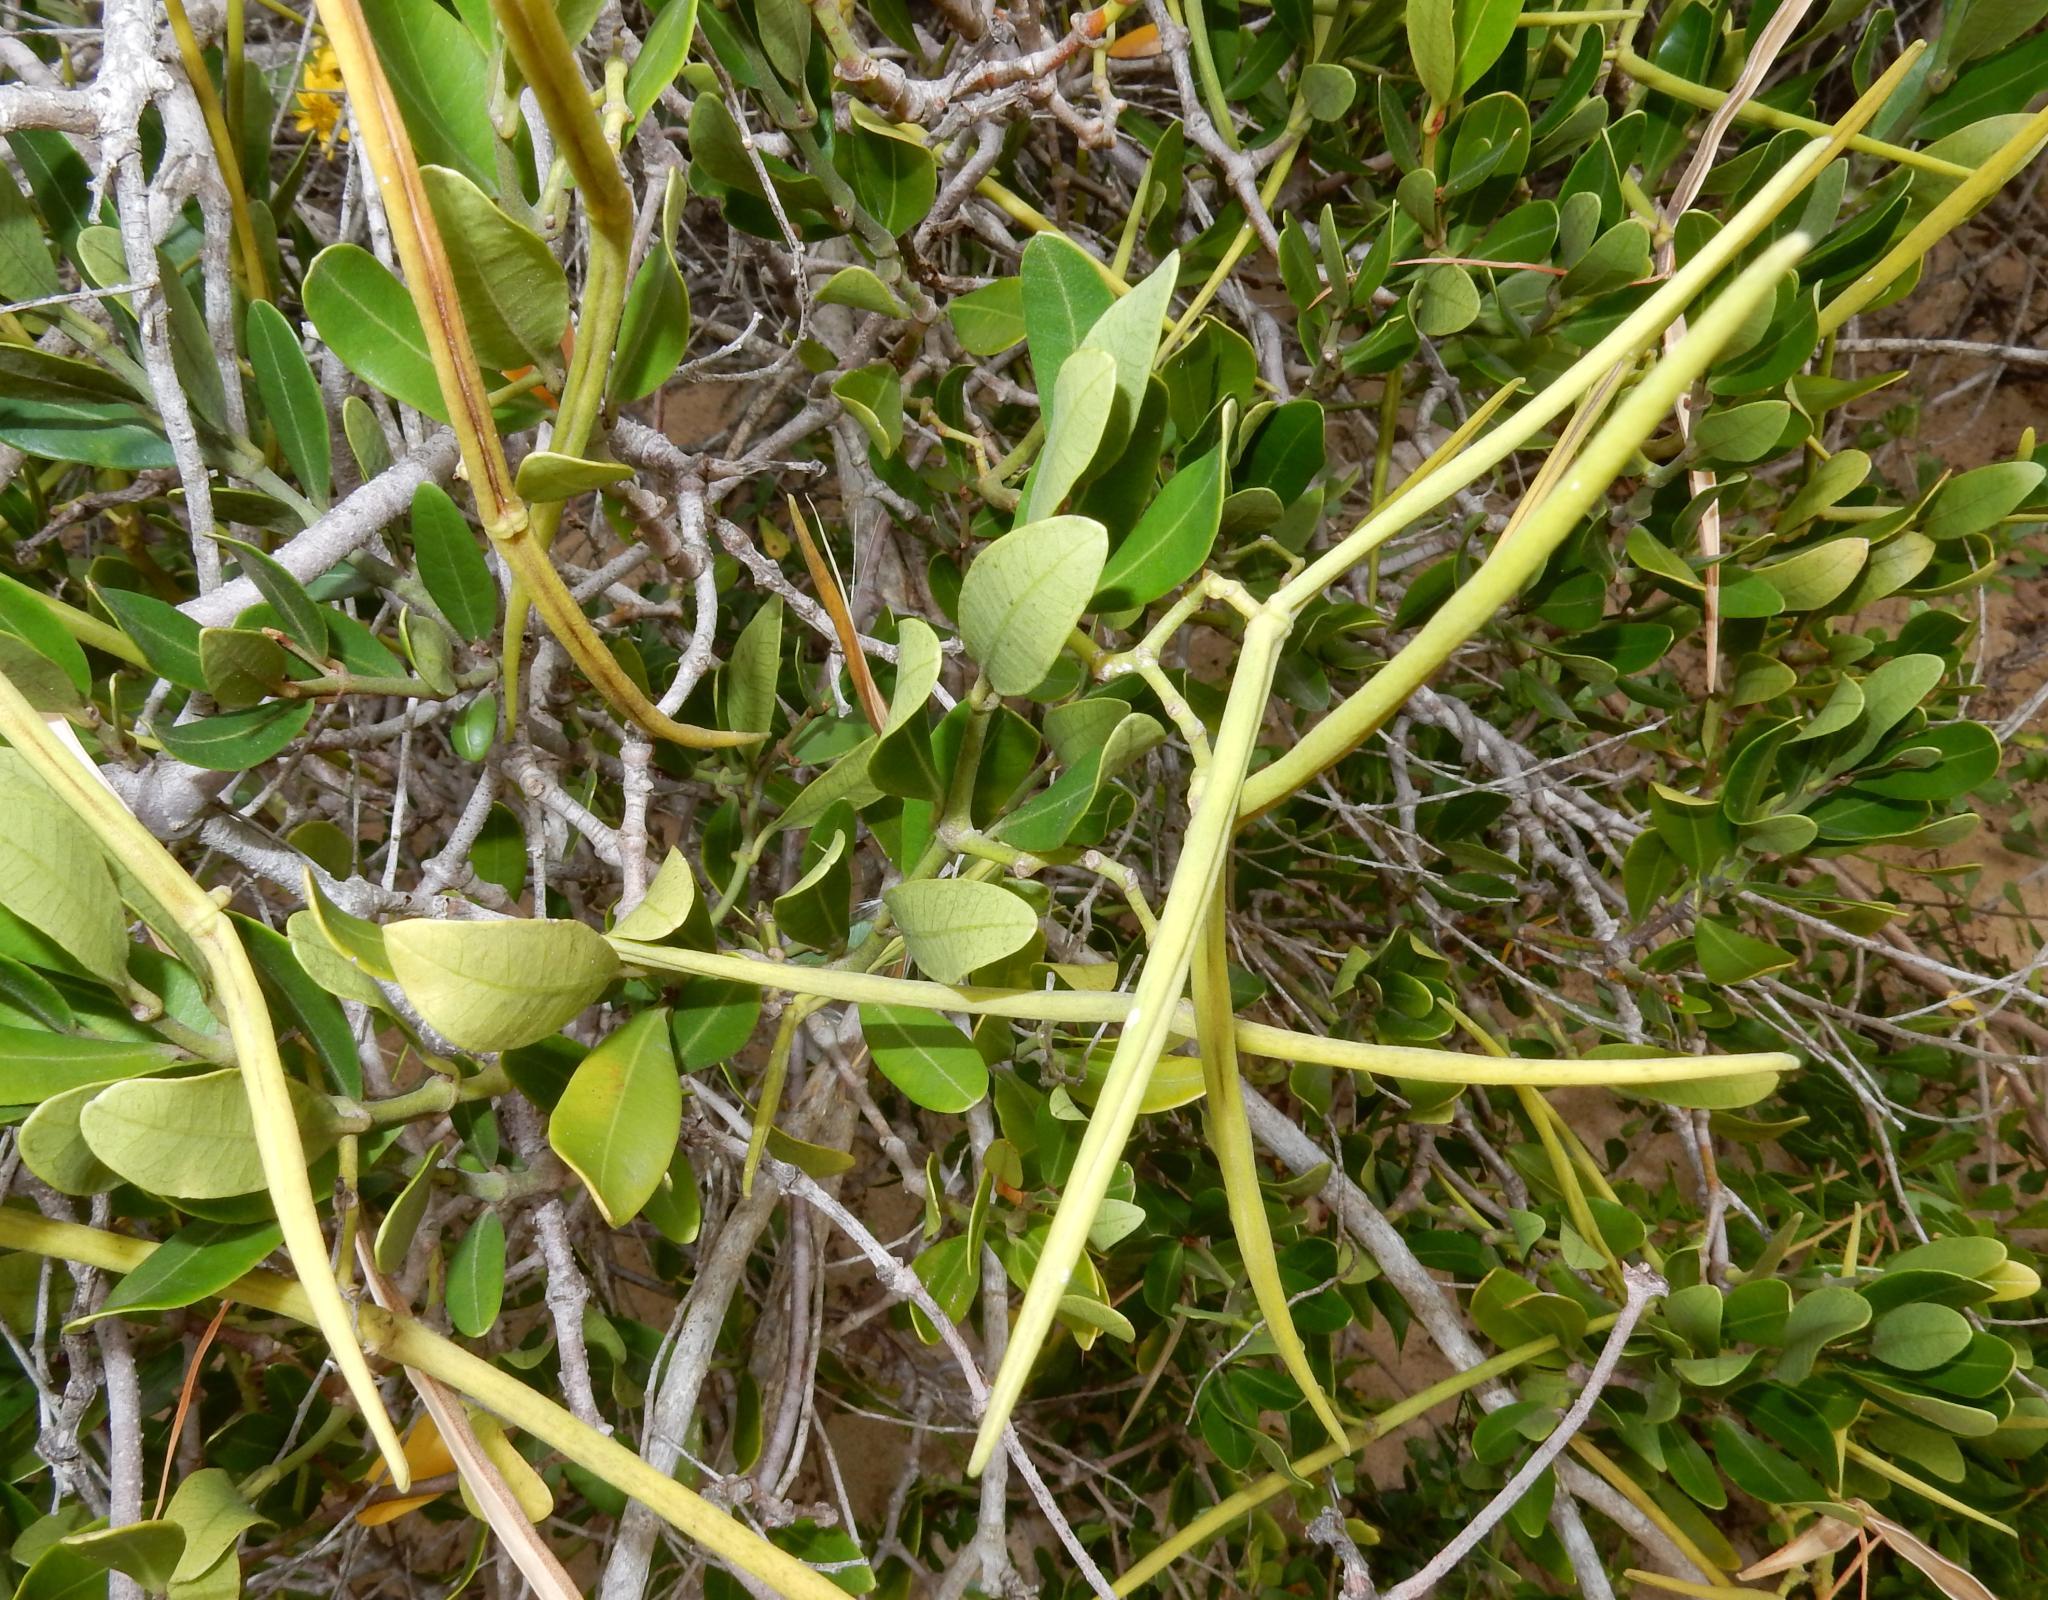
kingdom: Plantae
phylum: Tracheophyta
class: Magnoliopsida
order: Gentianales
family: Apocynaceae
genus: Secamone
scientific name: Secamone alpini
